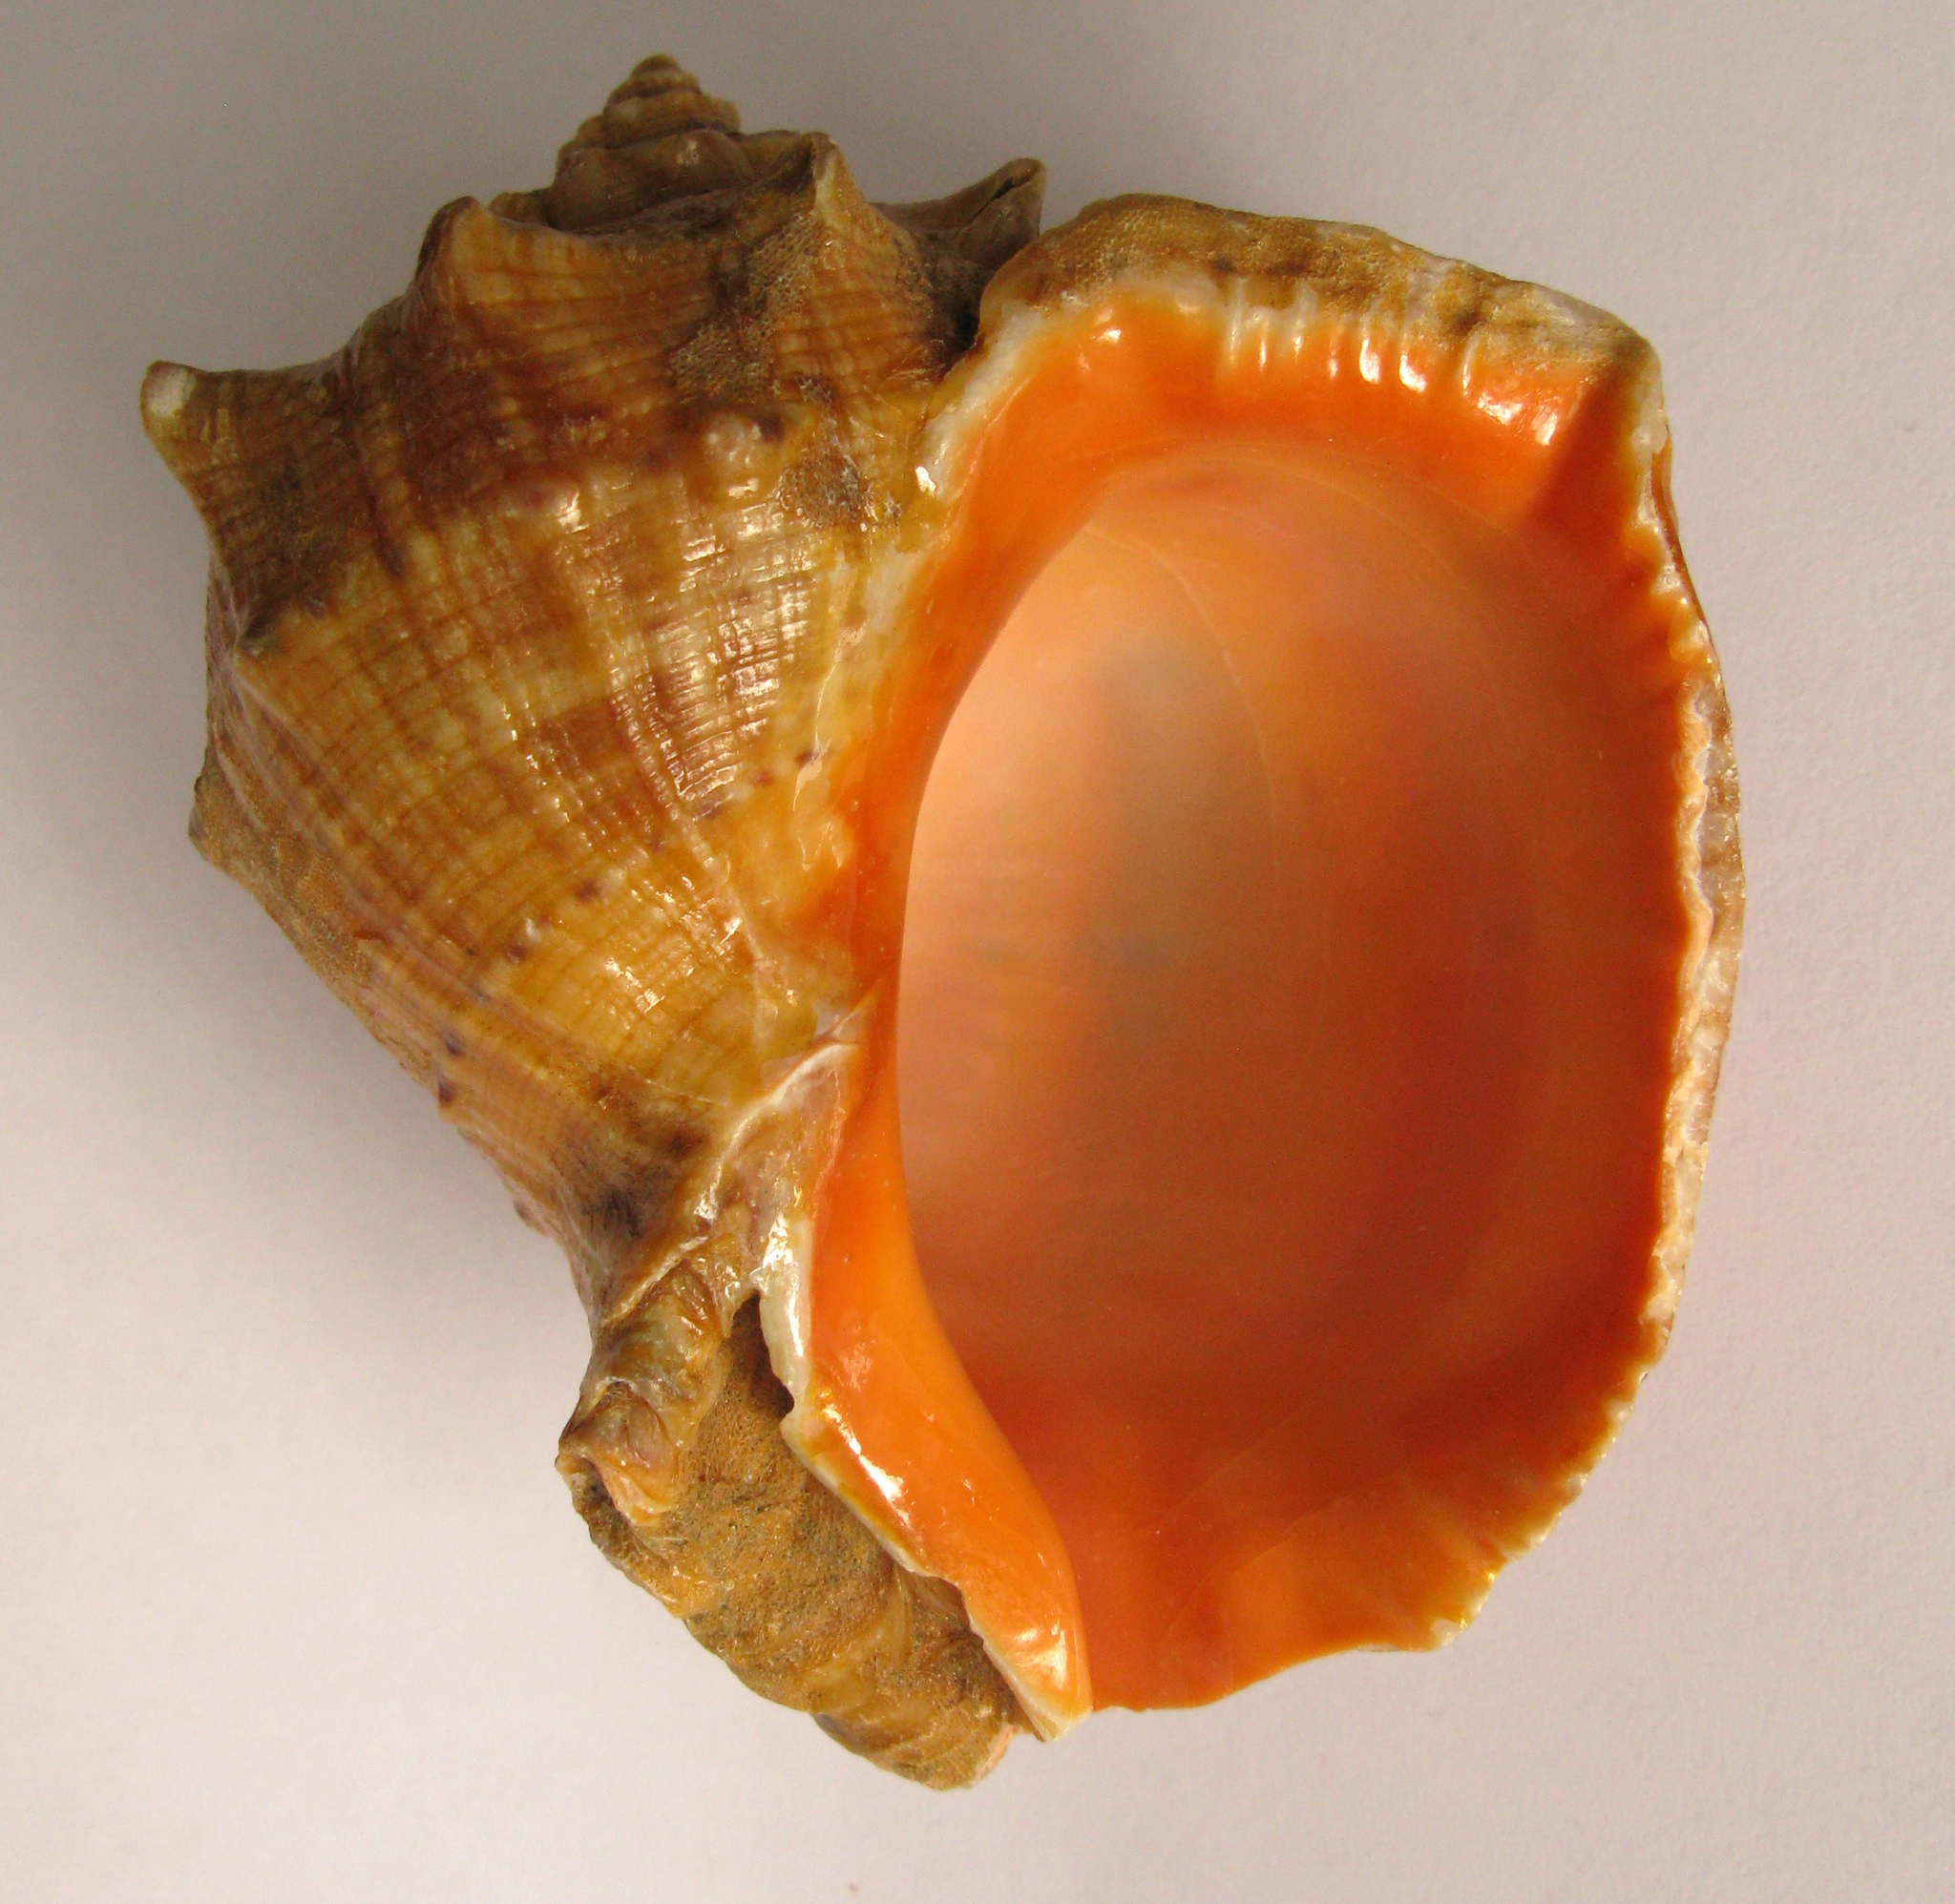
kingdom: Animalia
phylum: Mollusca
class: Gastropoda
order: Neogastropoda
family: Muricidae
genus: Rapana
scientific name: Rapana venosa
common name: Veined rapa whelk
